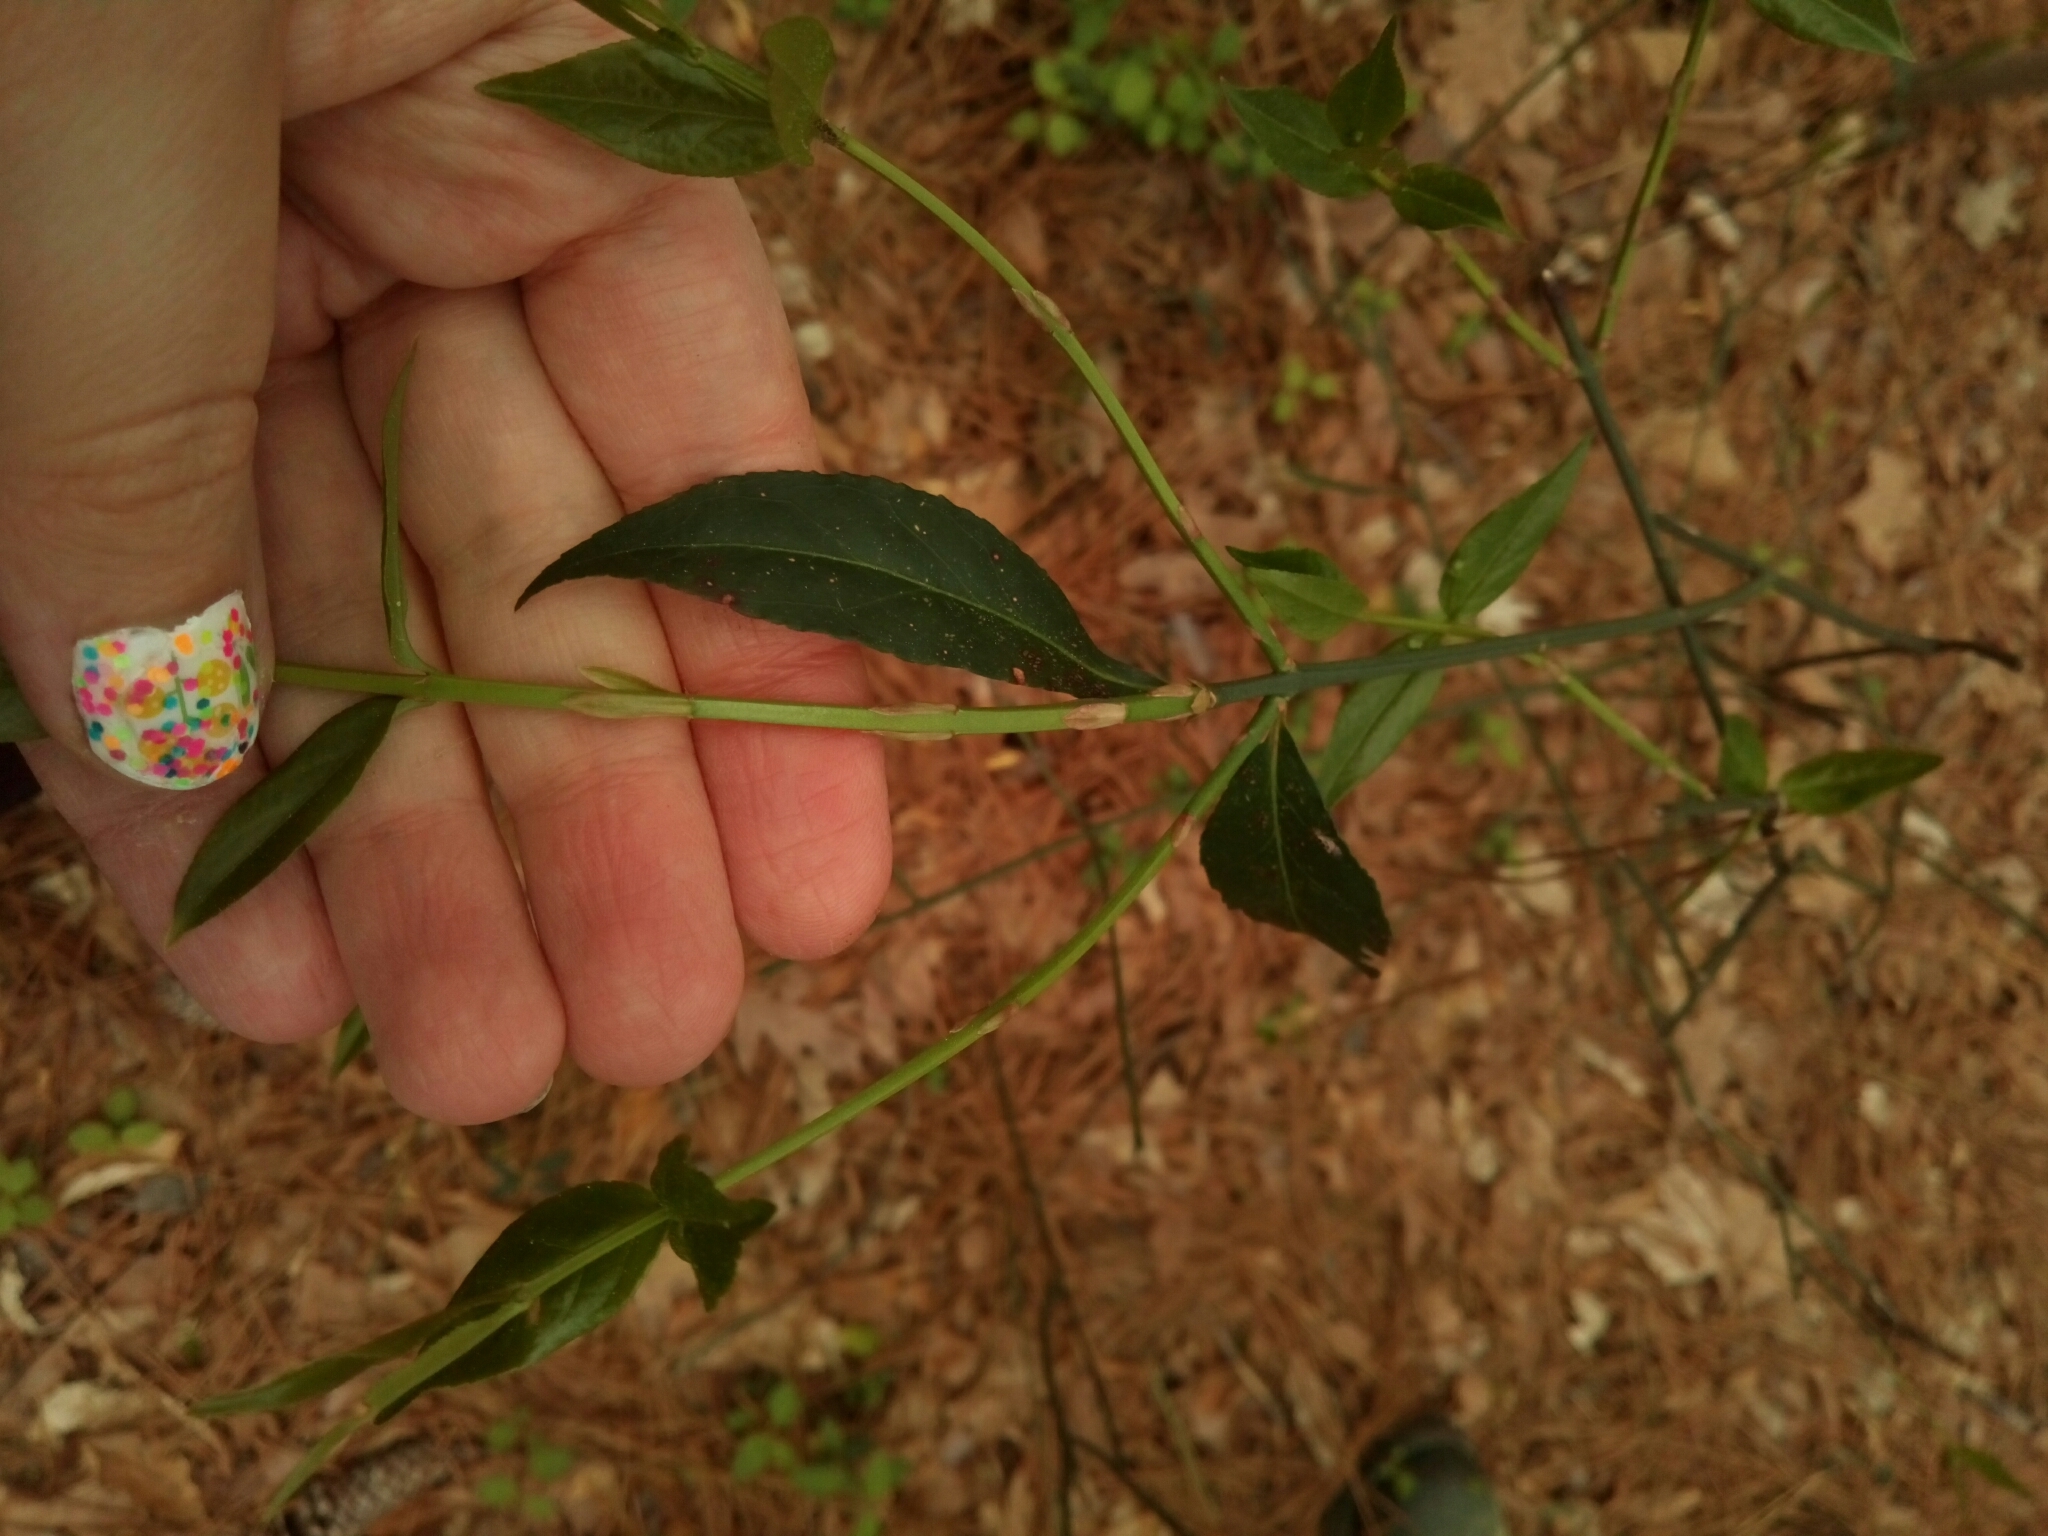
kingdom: Plantae
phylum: Tracheophyta
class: Magnoliopsida
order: Celastrales
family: Celastraceae
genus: Euonymus
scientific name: Euonymus americanus
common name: Bursting-heart
